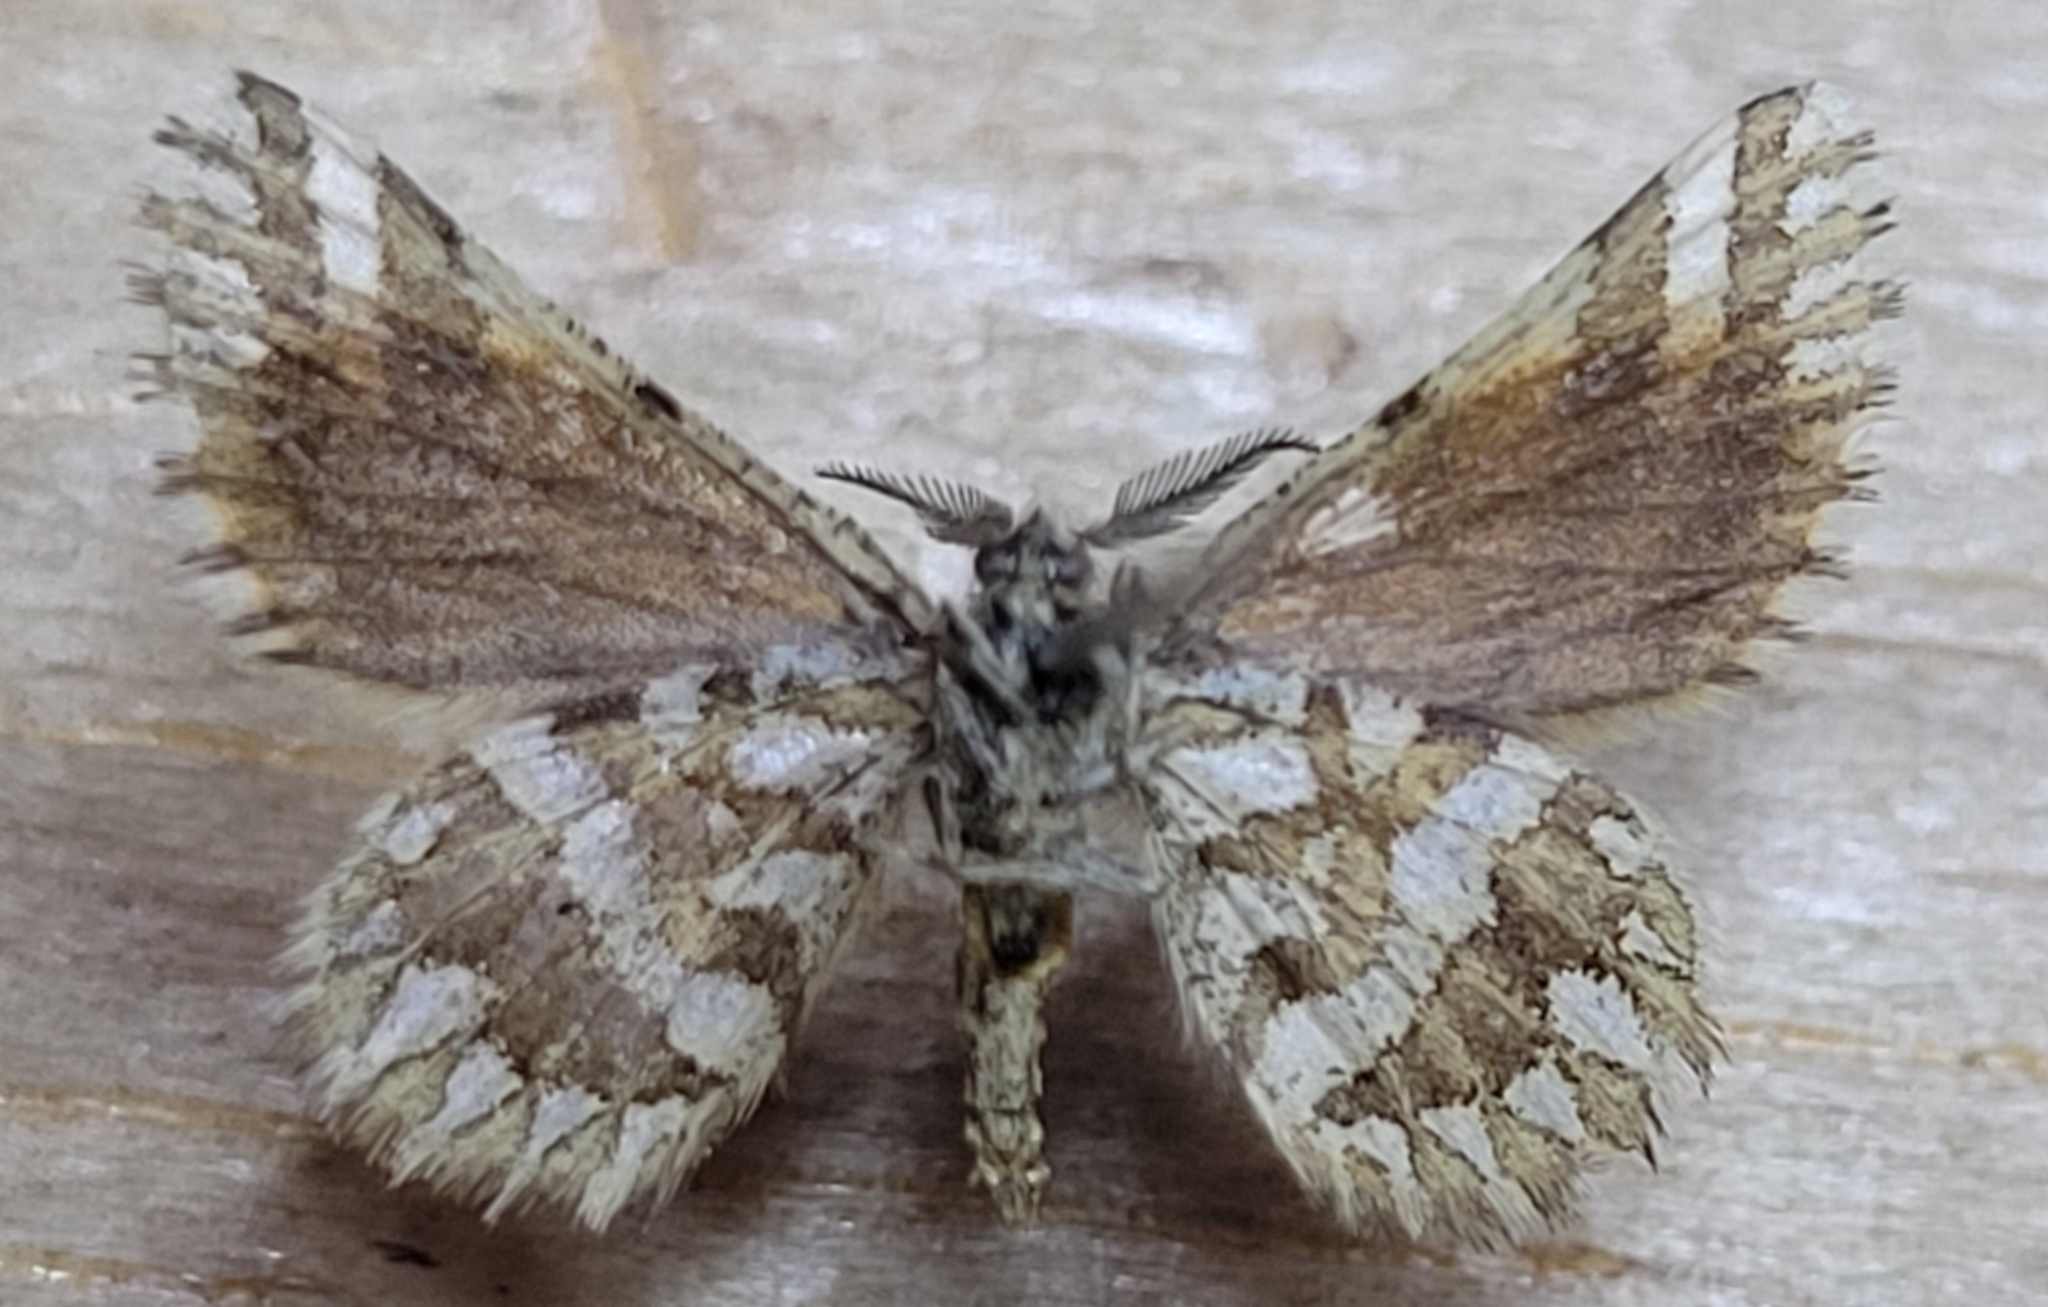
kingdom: Animalia
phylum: Arthropoda
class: Insecta
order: Lepidoptera
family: Geometridae
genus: Narraga
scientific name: Narraga fimetaria
